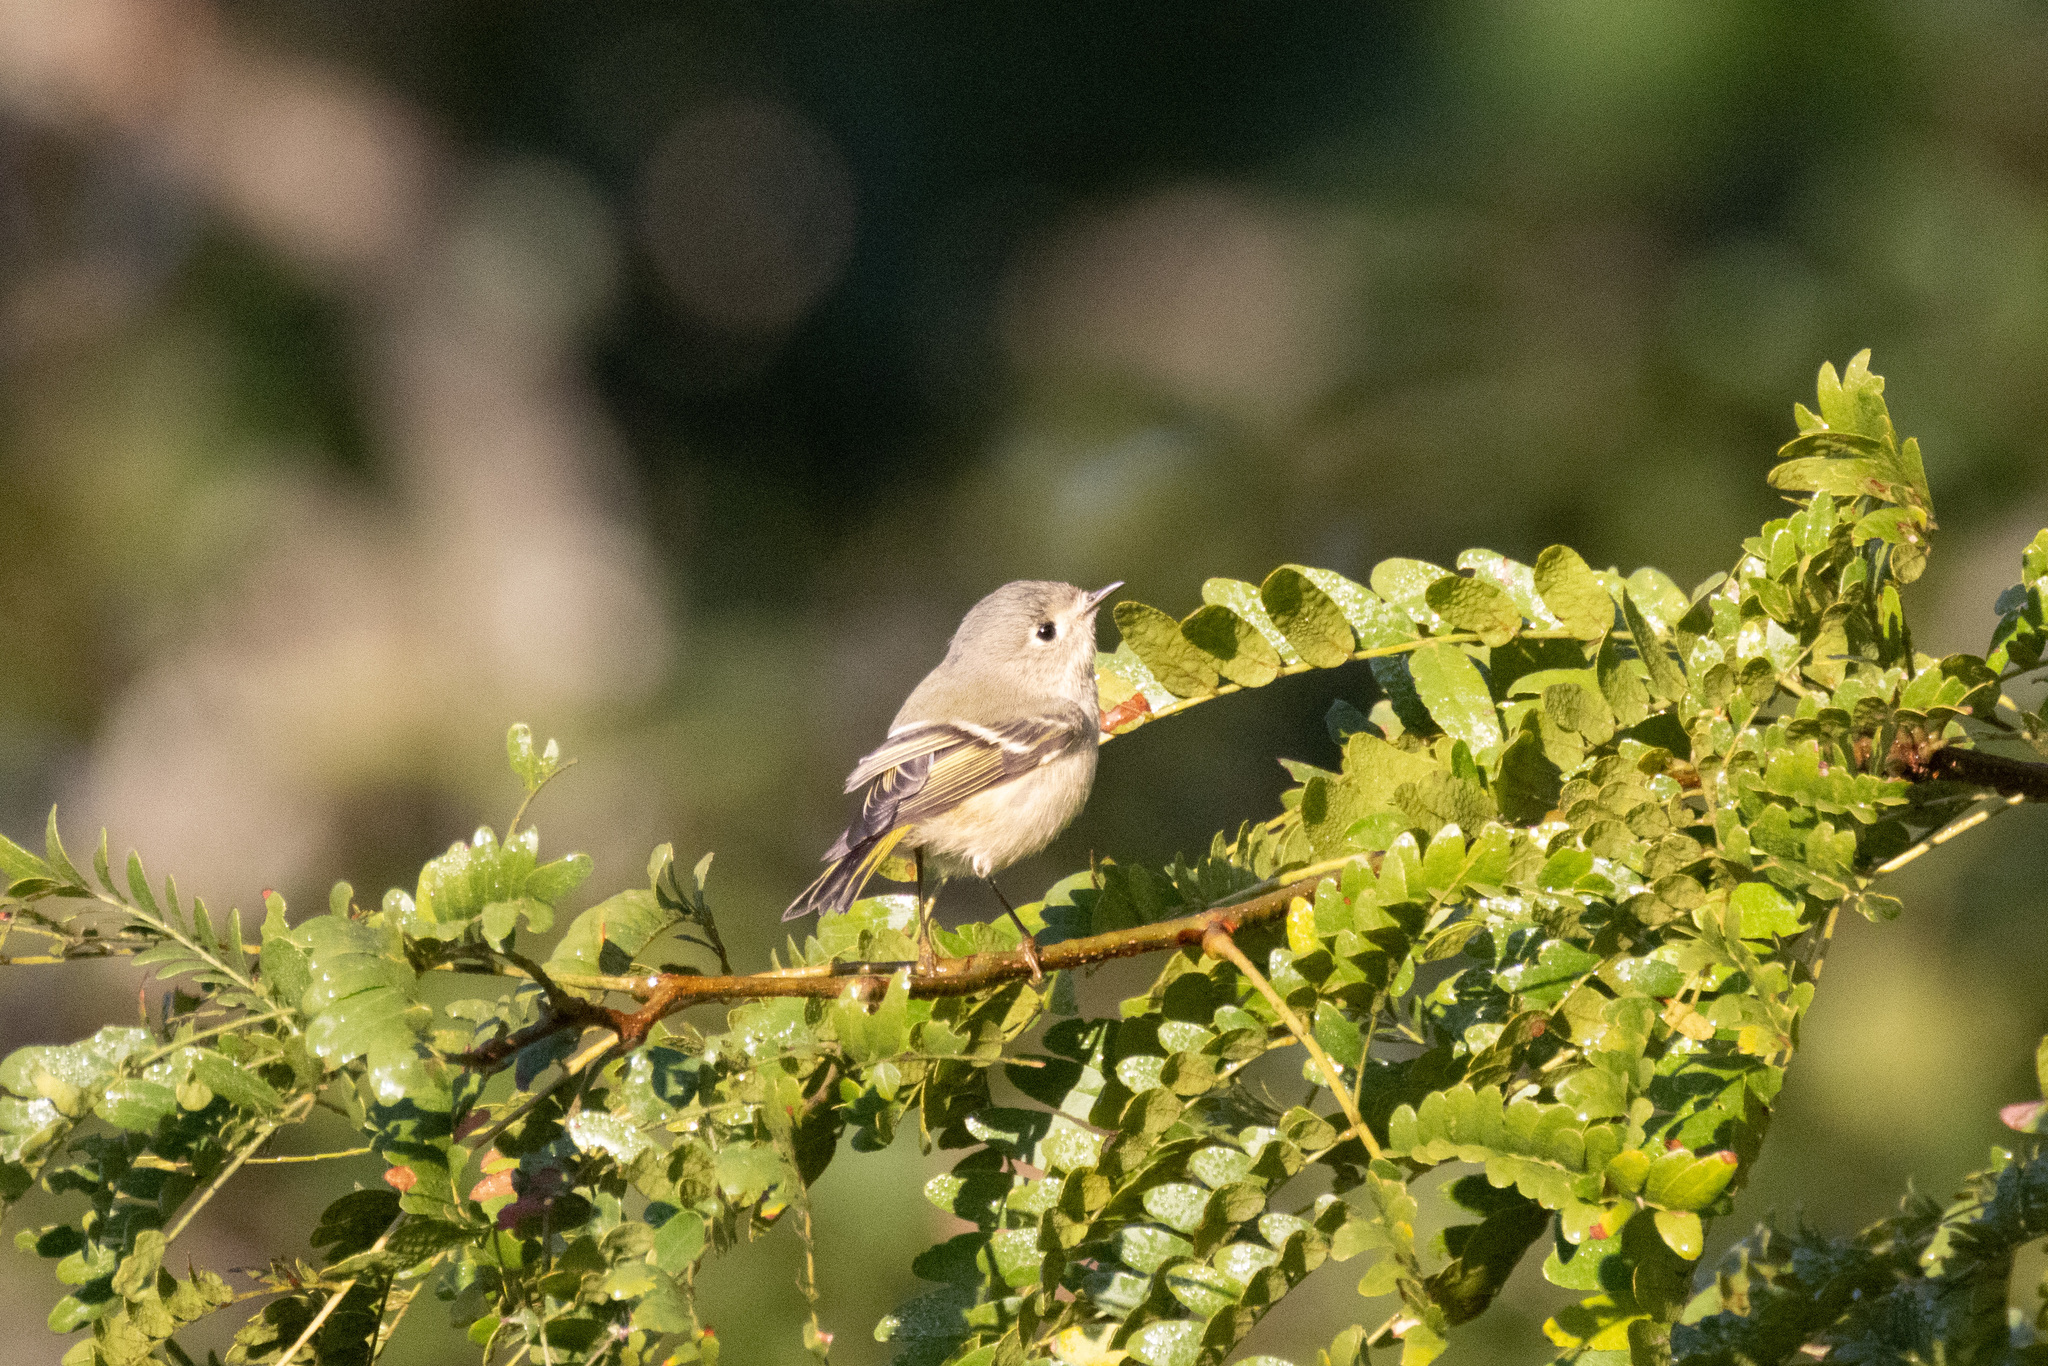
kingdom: Animalia
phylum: Chordata
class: Aves
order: Passeriformes
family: Regulidae
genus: Regulus
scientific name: Regulus calendula
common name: Ruby-crowned kinglet
